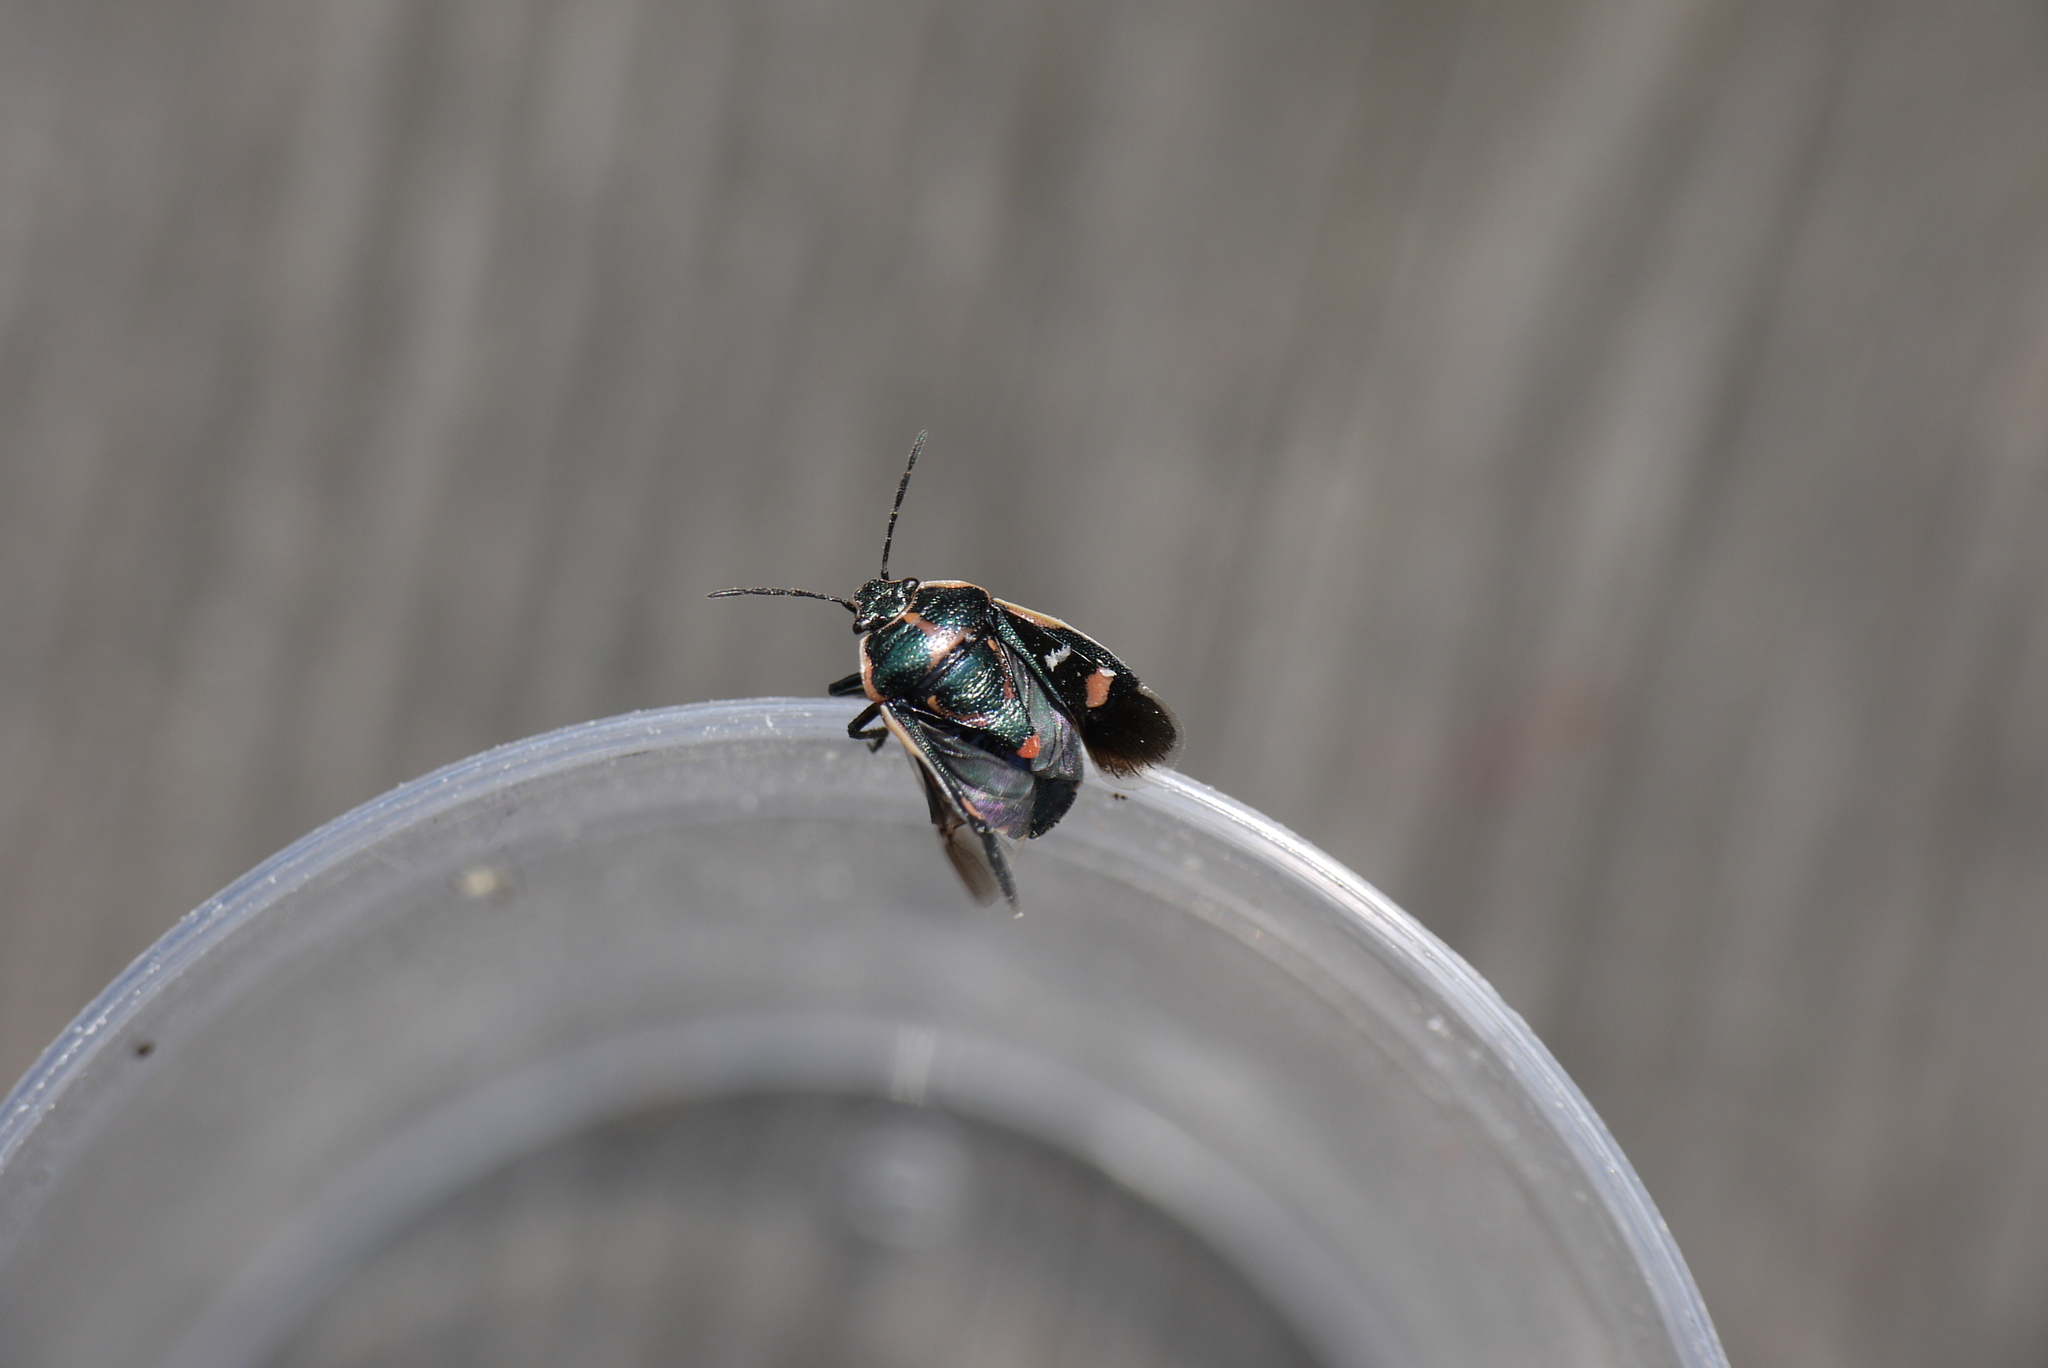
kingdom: Animalia
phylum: Arthropoda
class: Insecta
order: Hemiptera
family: Pentatomidae
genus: Eurydema
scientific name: Eurydema oleracea
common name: Cabbage bug
